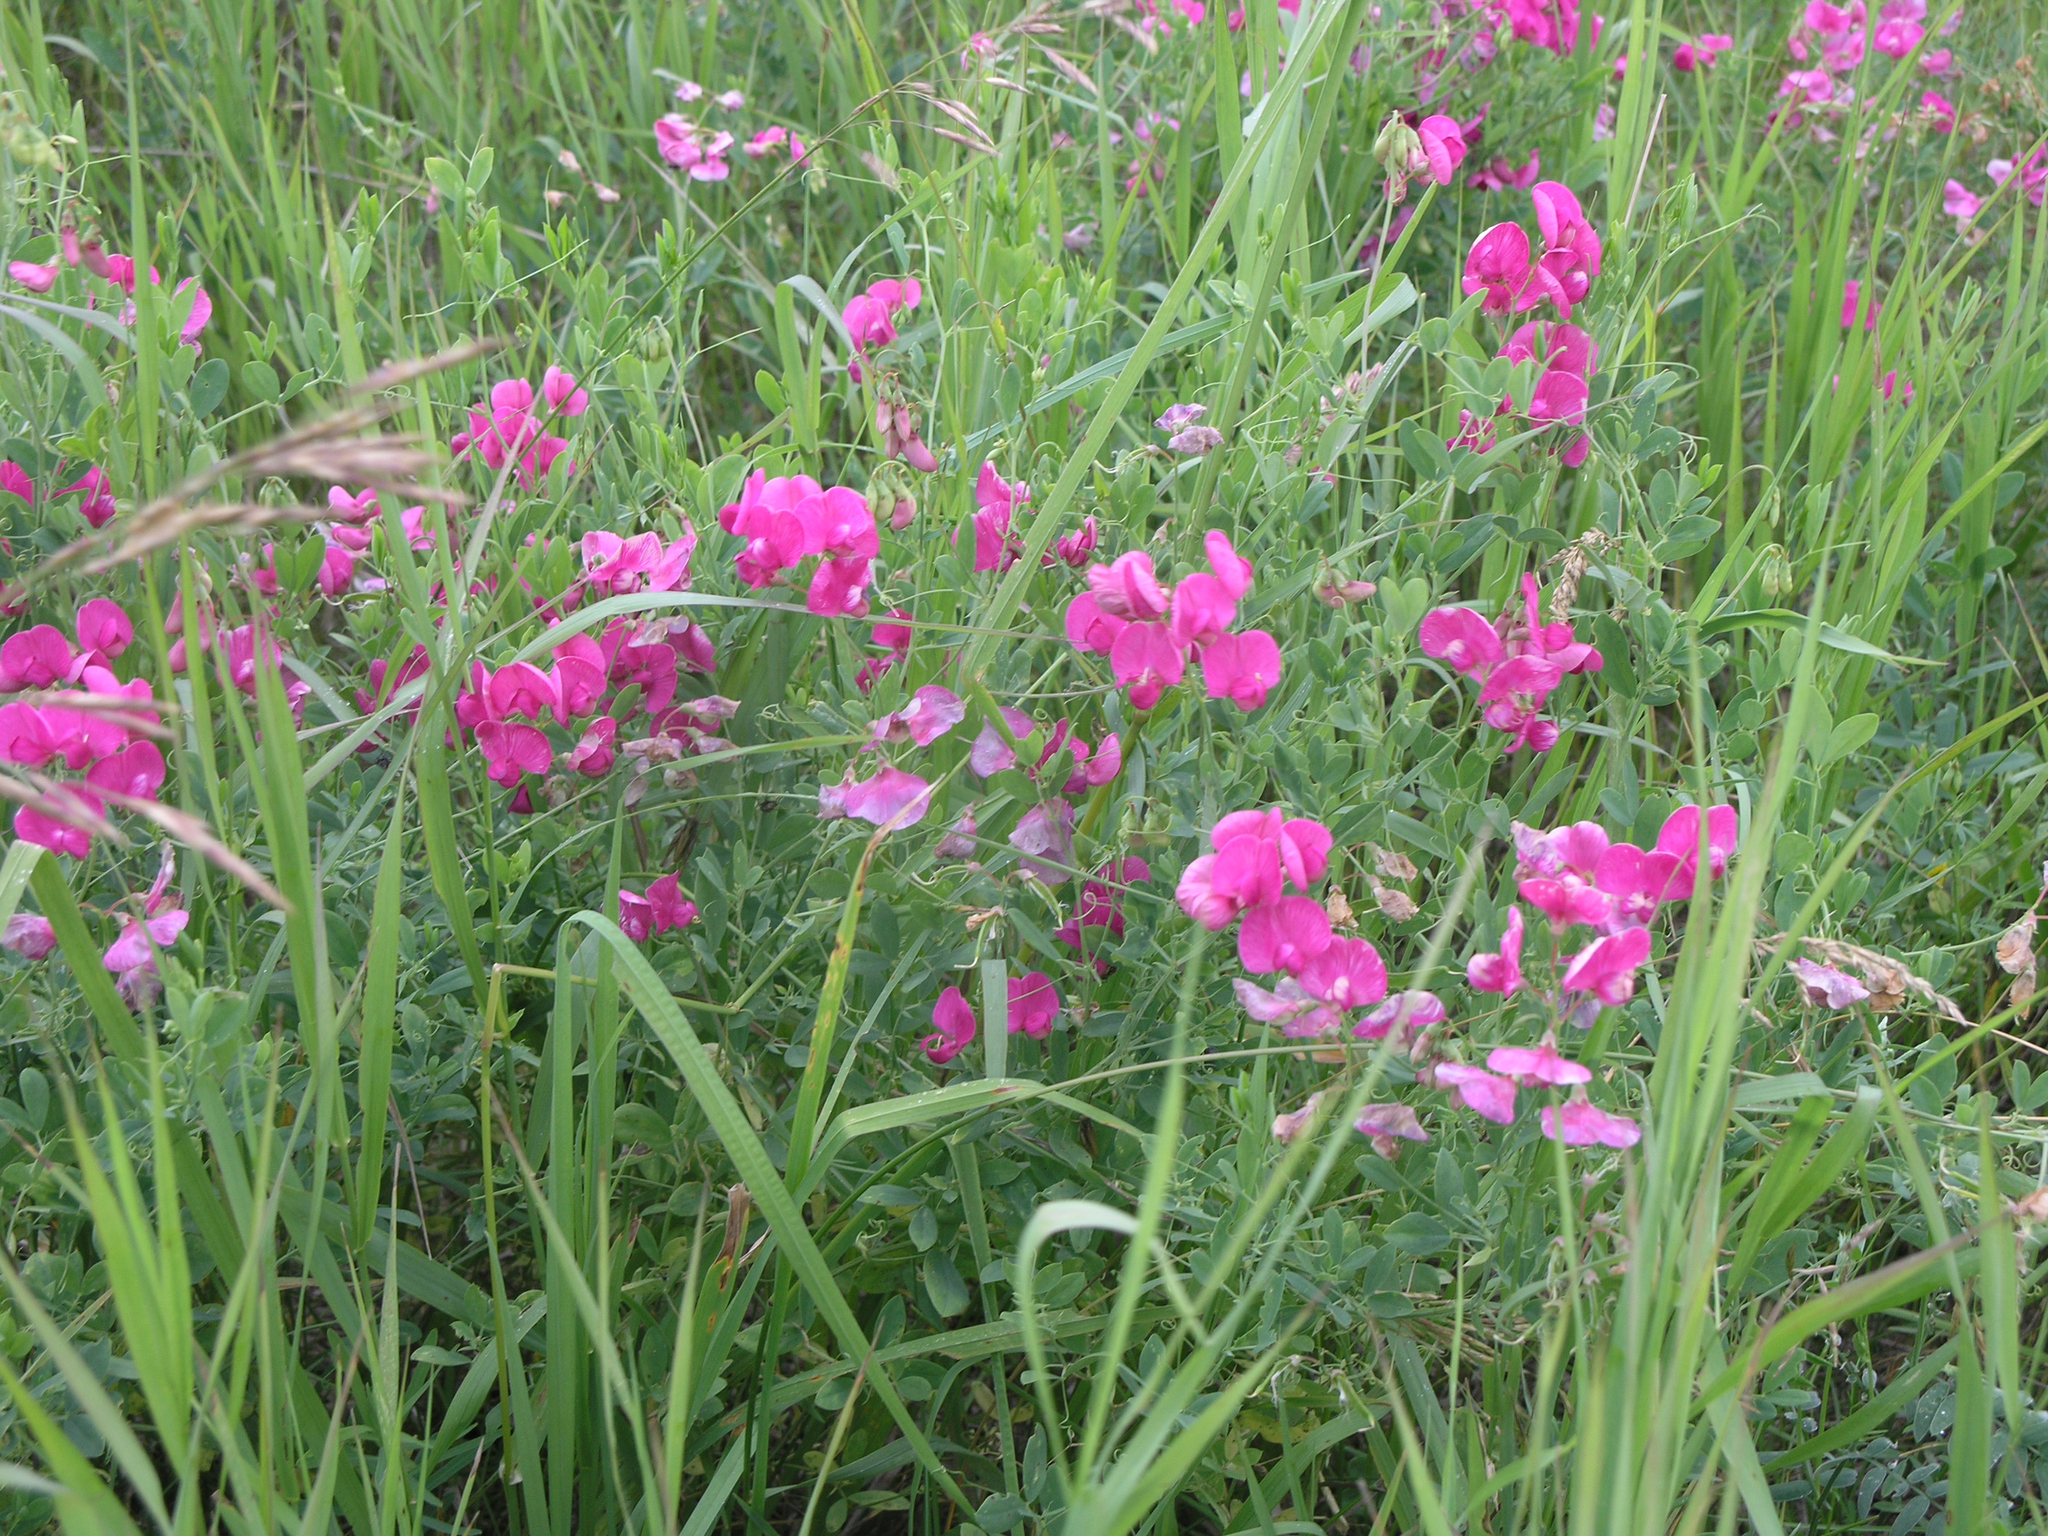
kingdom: Plantae
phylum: Tracheophyta
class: Magnoliopsida
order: Fabales
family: Fabaceae
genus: Lathyrus
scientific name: Lathyrus tuberosus
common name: Tuberous pea
